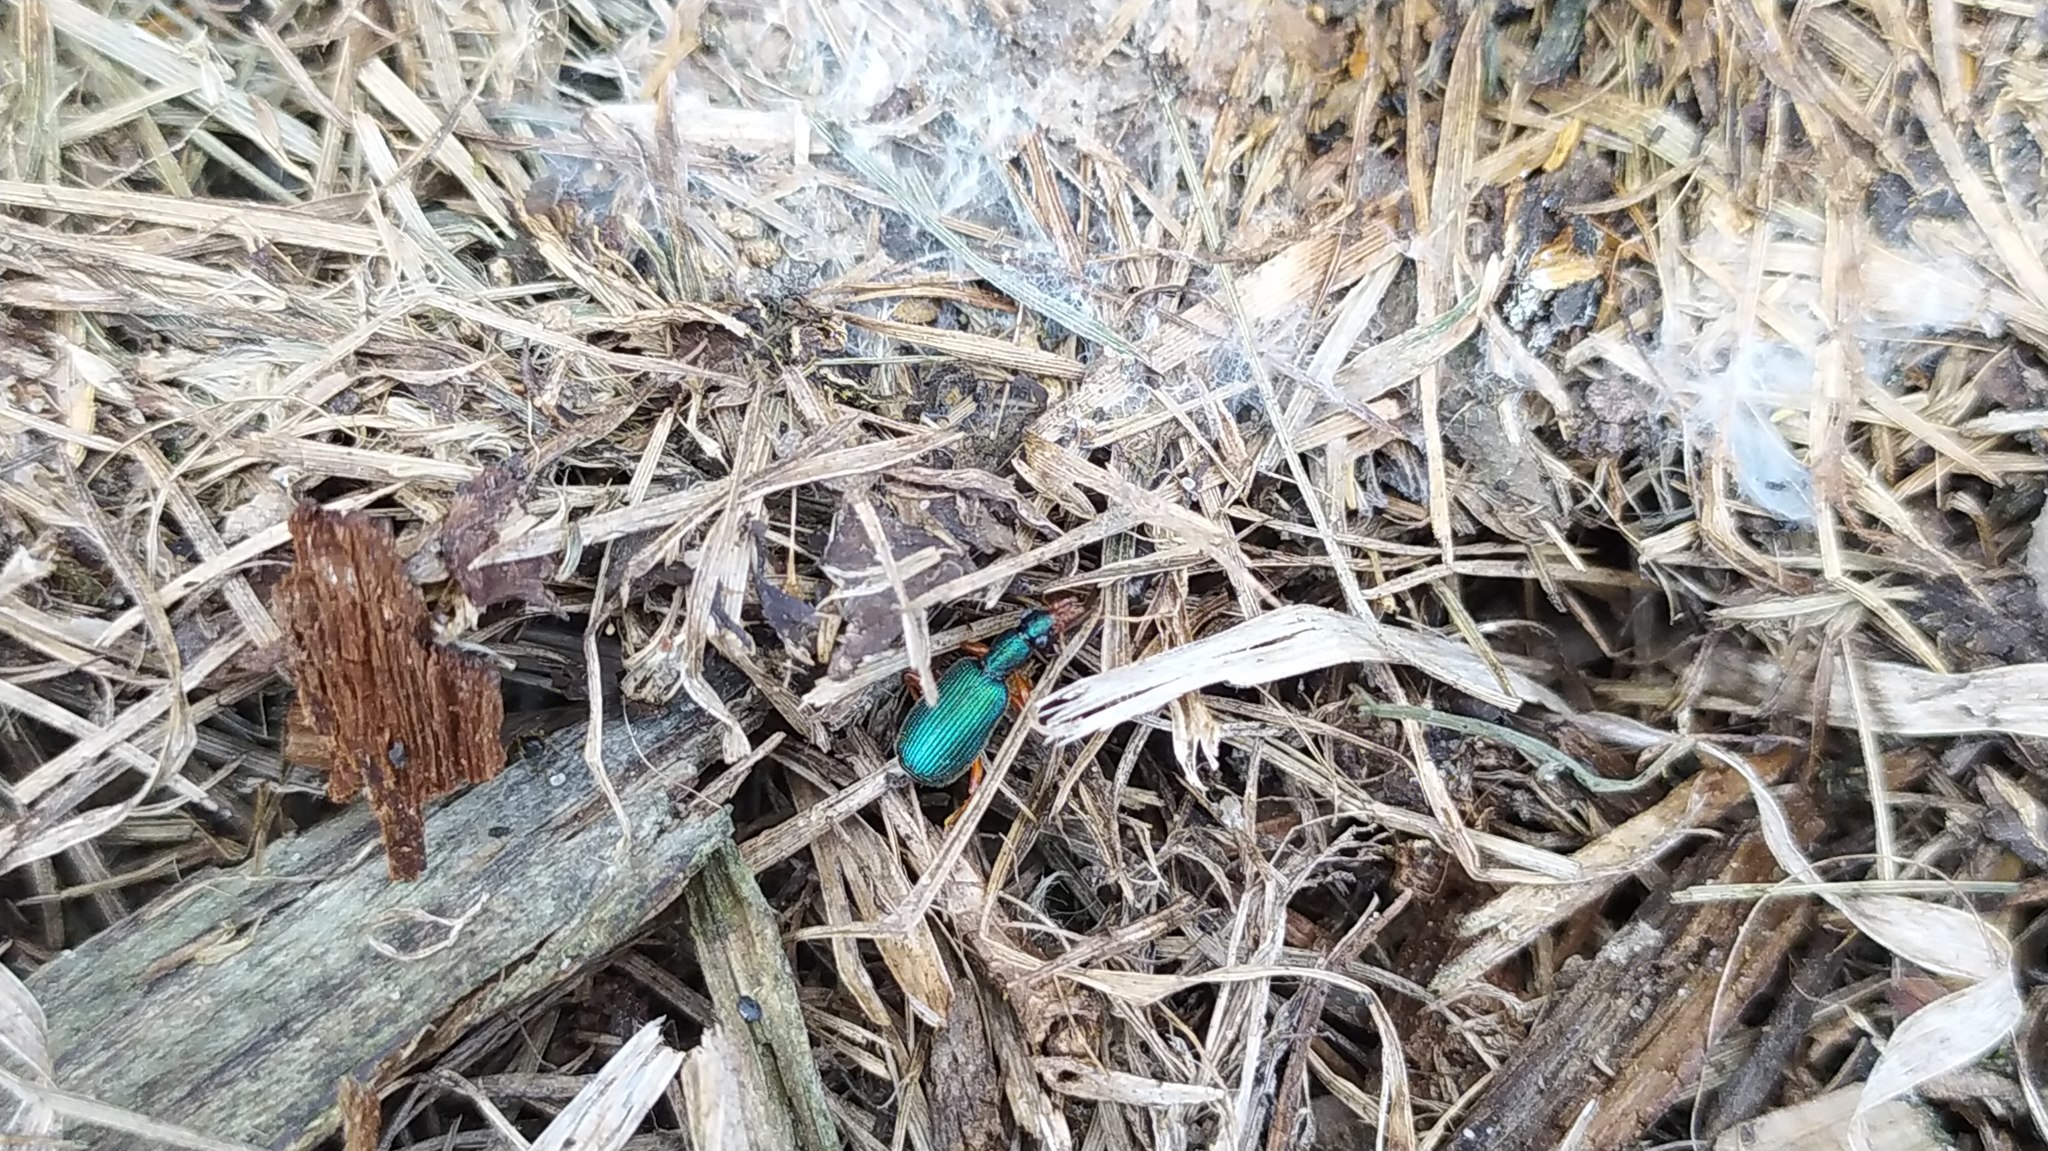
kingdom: Animalia
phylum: Arthropoda
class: Insecta
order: Coleoptera
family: Carabidae
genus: Drypta
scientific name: Drypta dentata
